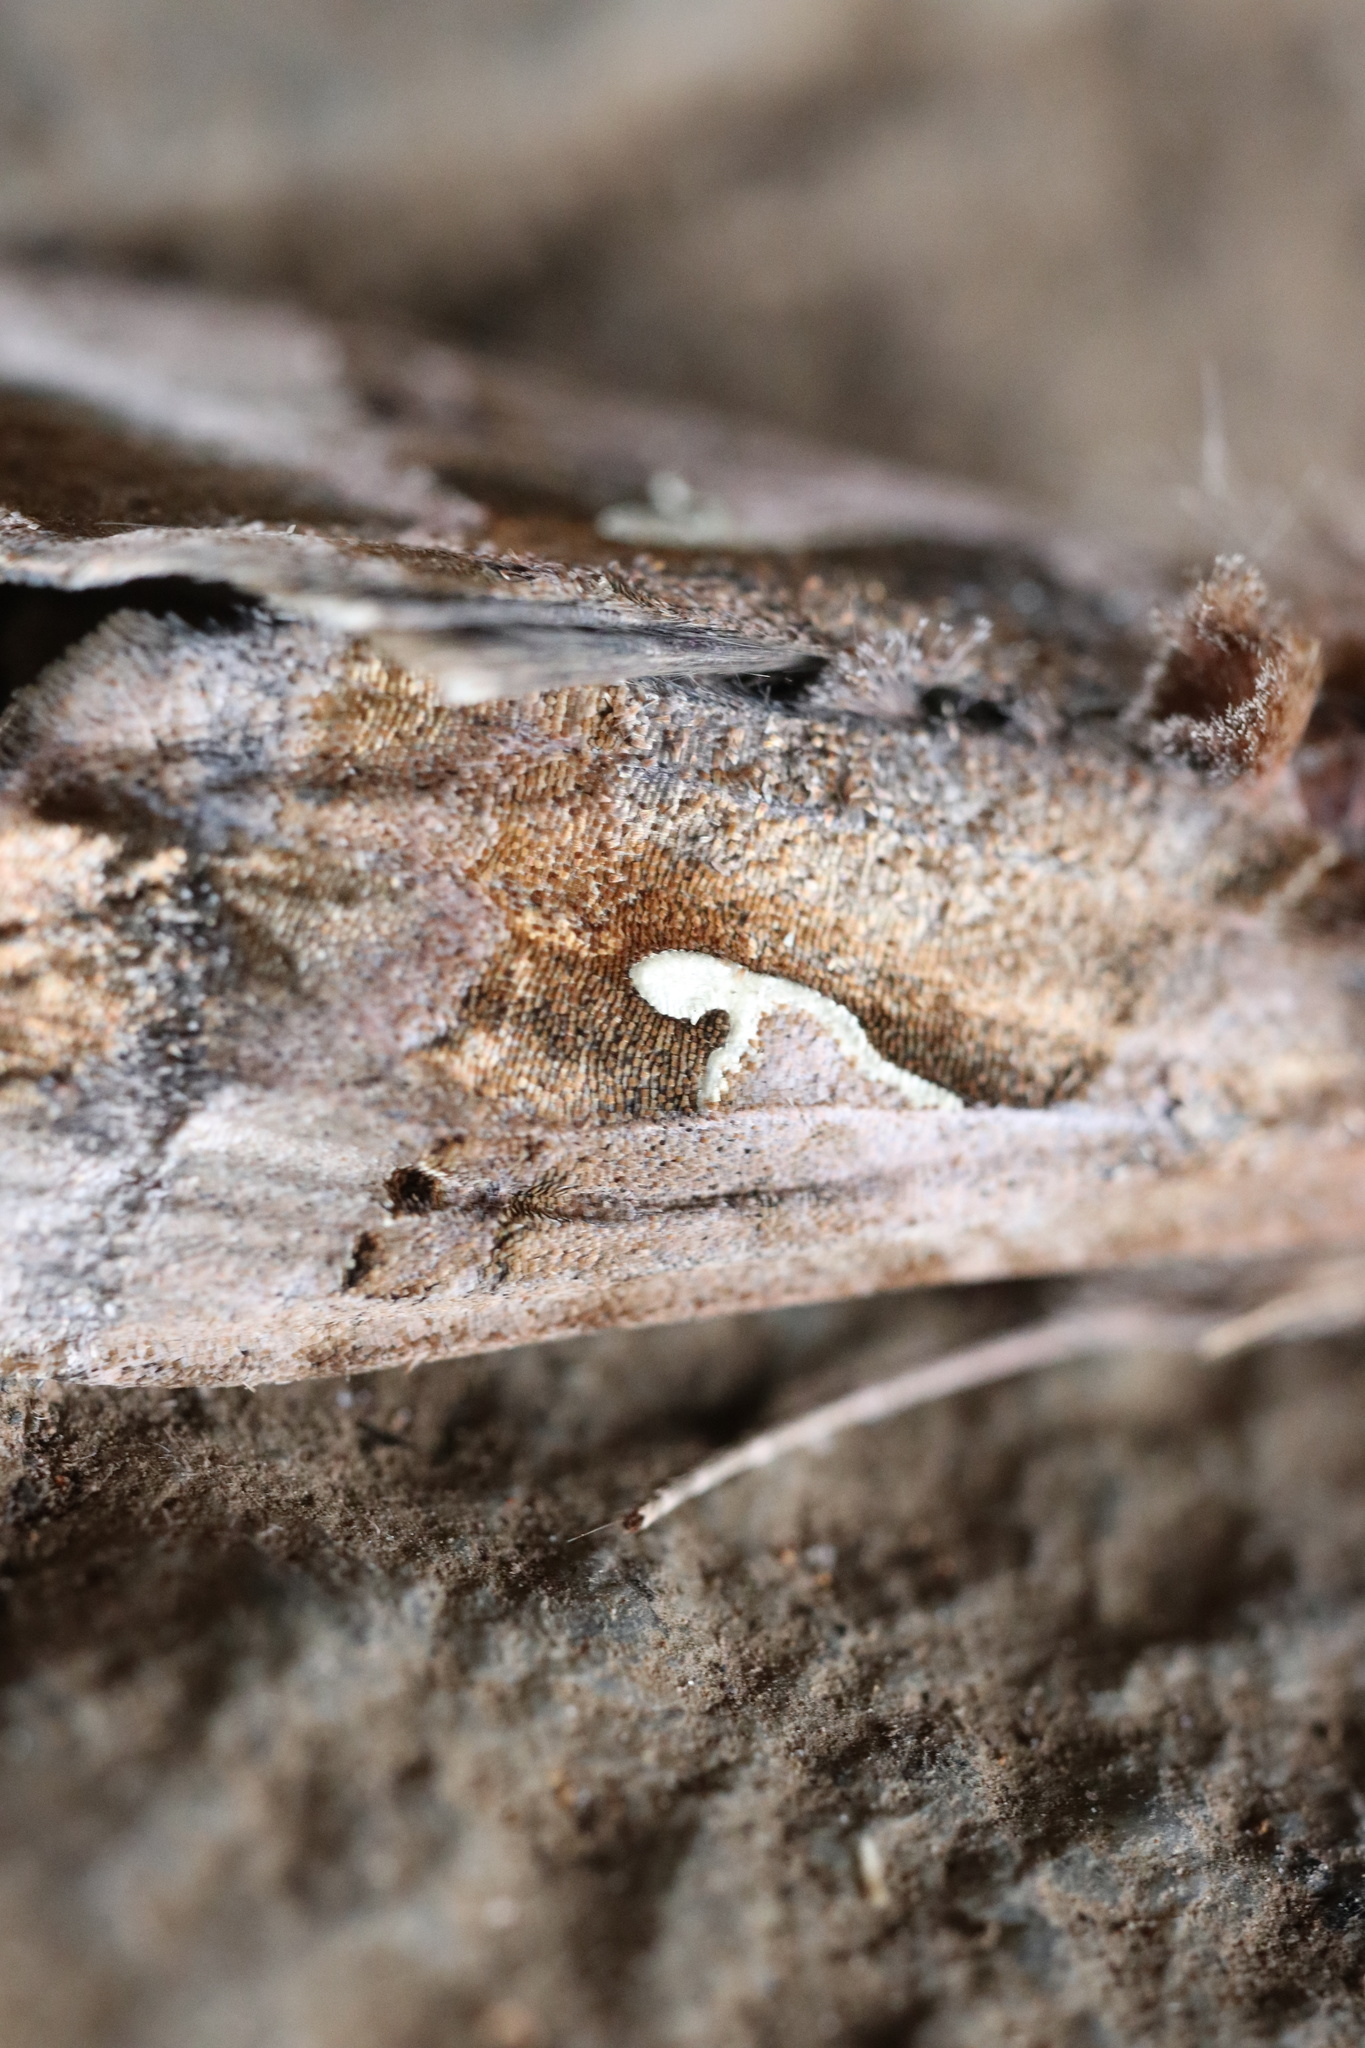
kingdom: Animalia
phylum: Arthropoda
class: Insecta
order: Lepidoptera
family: Noctuidae
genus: Autoplusia
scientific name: Autoplusia gammoides
